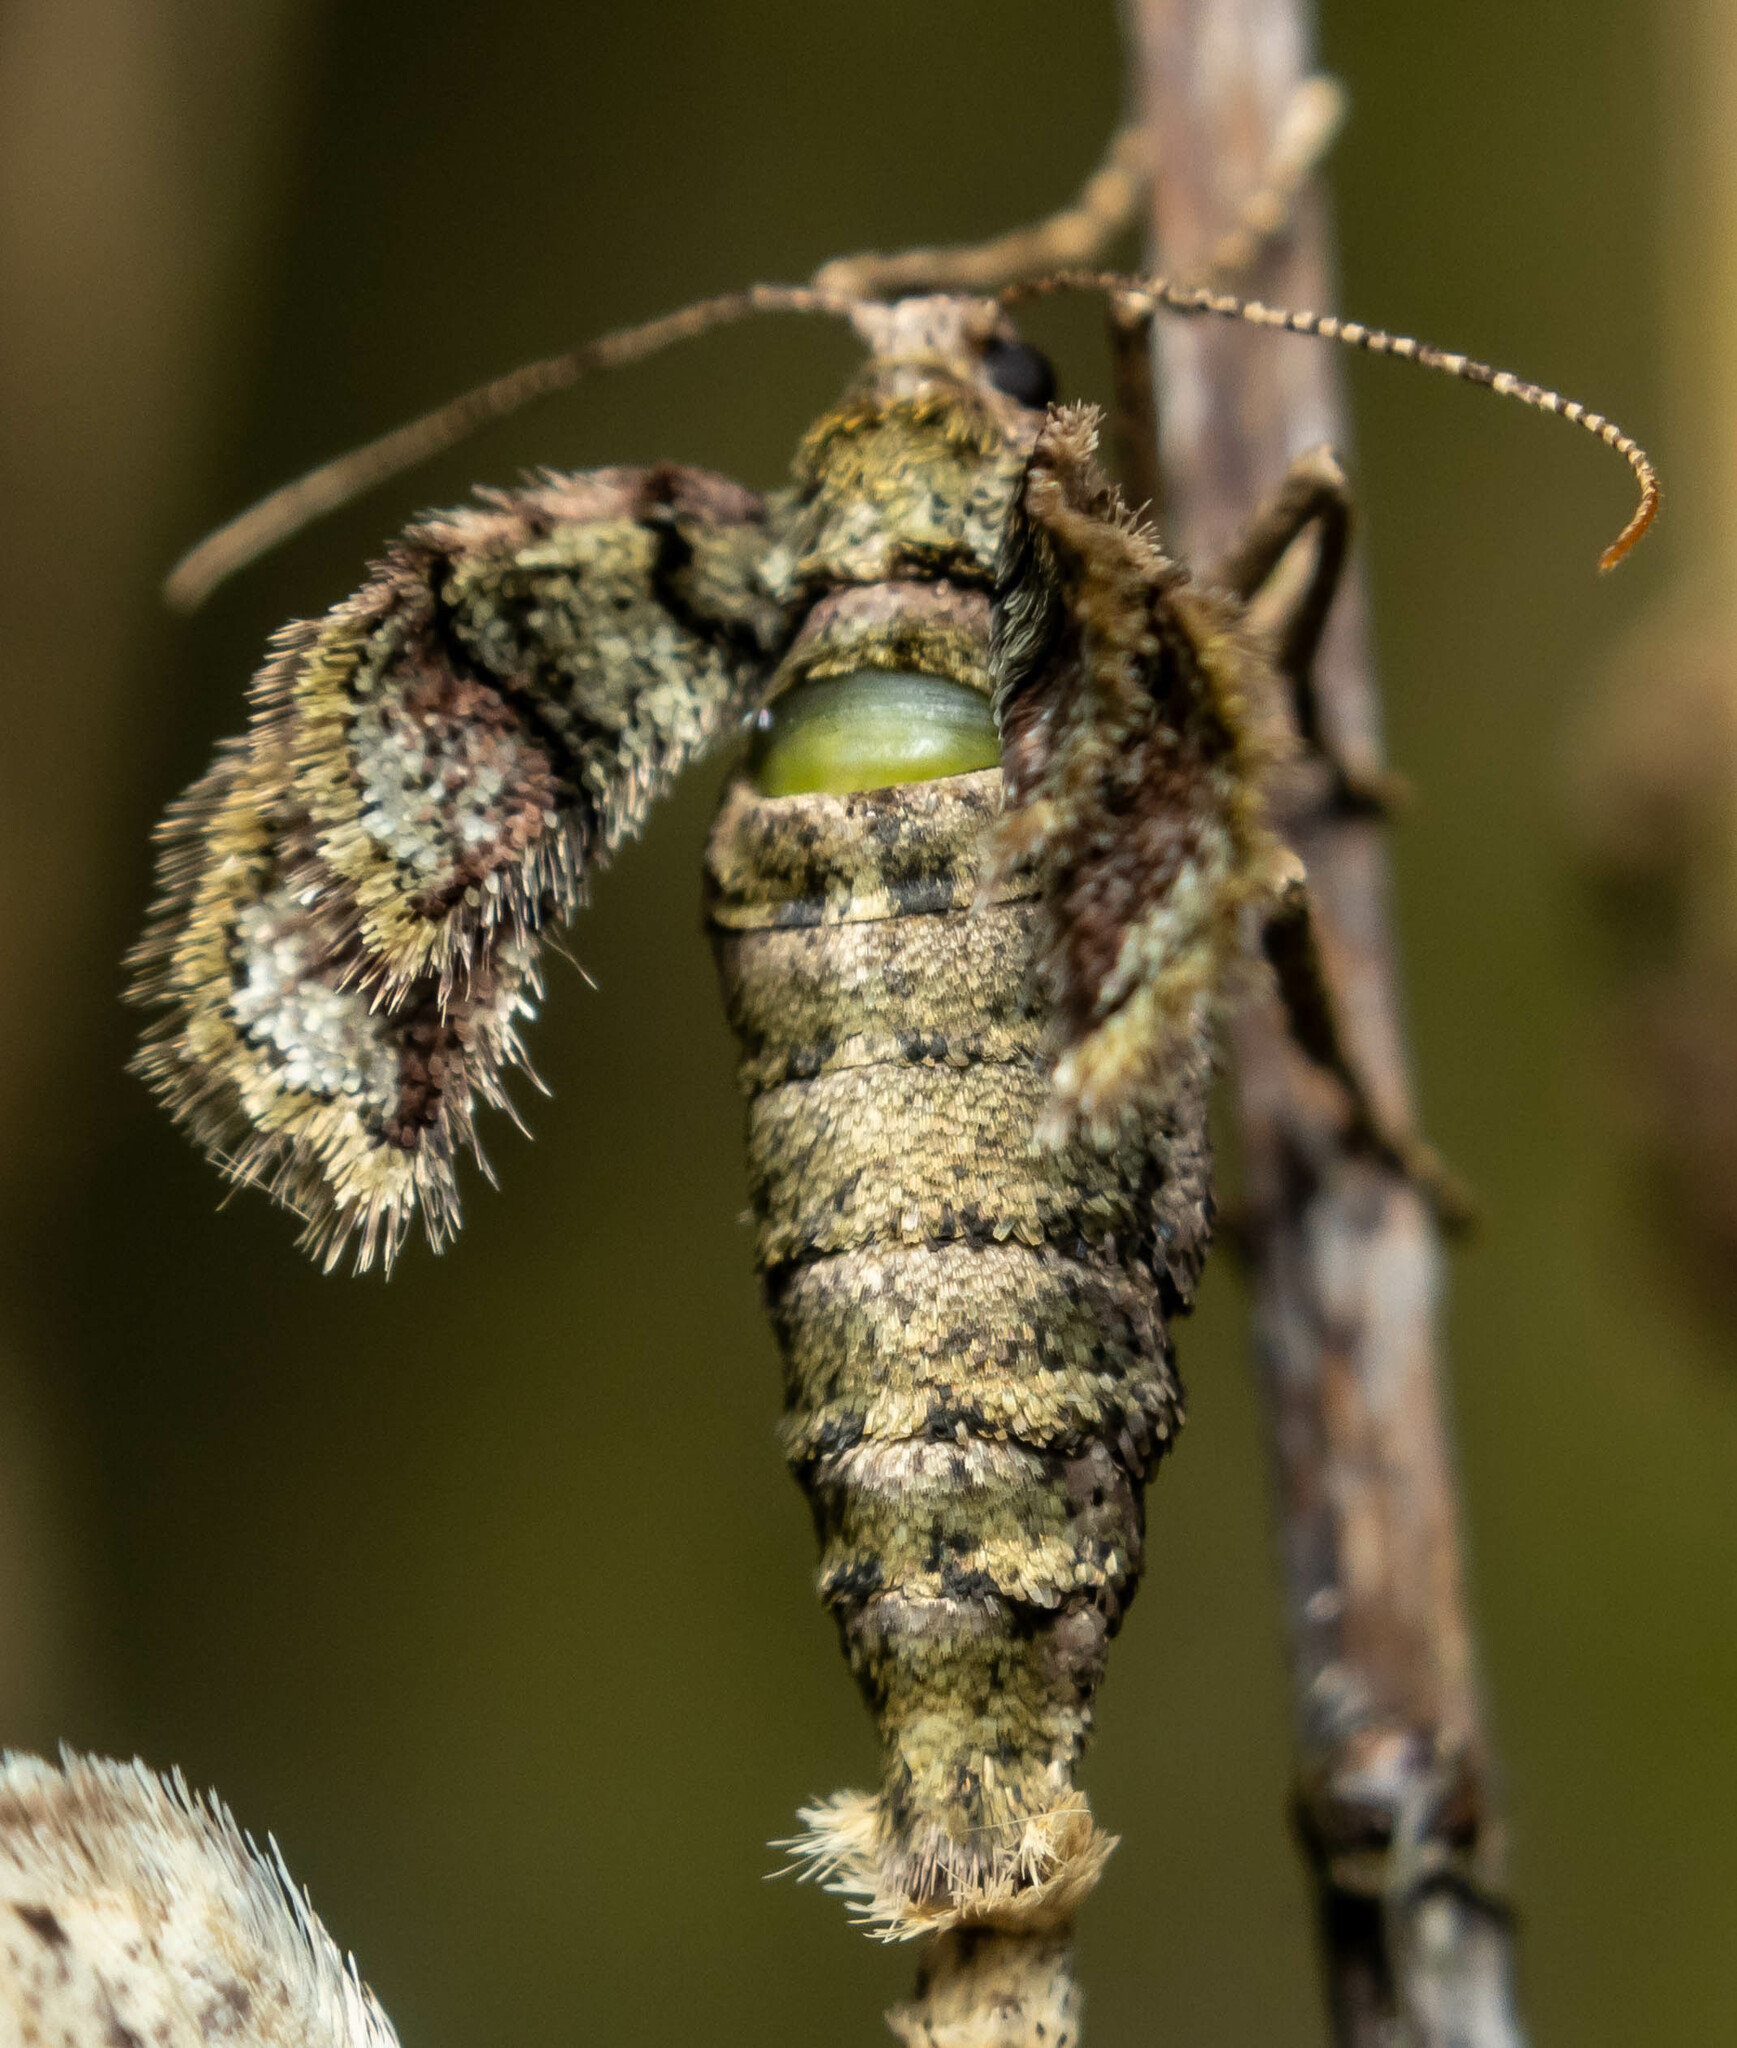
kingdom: Animalia
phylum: Arthropoda
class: Insecta
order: Lepidoptera
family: Geometridae
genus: Agriopis
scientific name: Agriopis marginaria
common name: Dotted border
